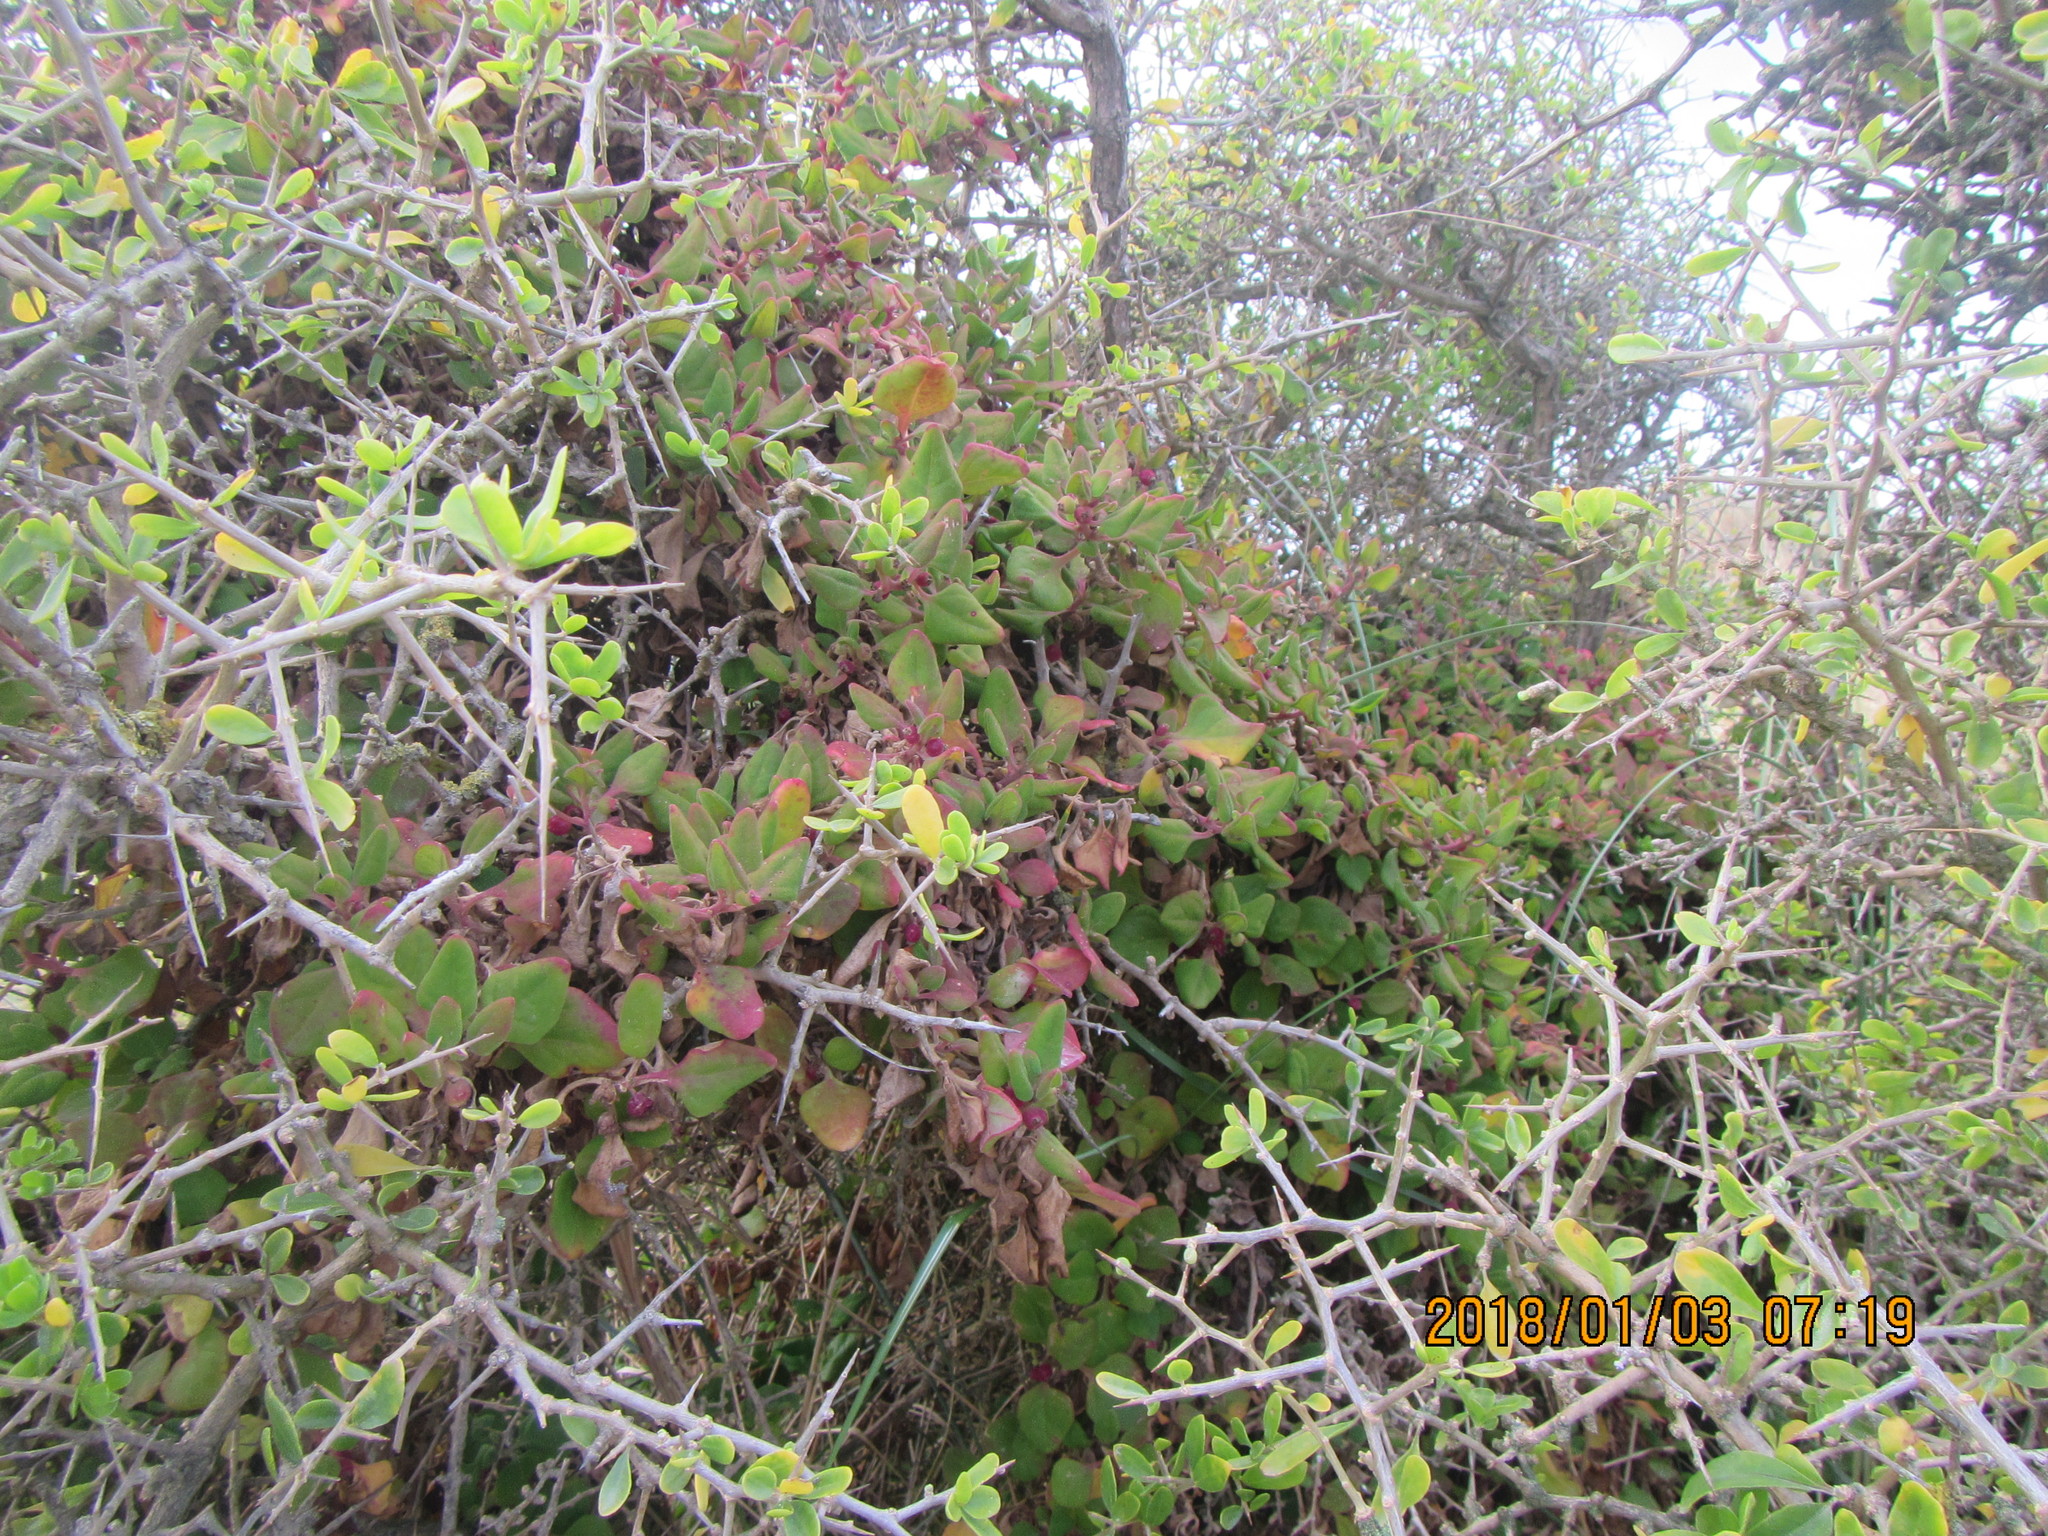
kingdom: Plantae
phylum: Tracheophyta
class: Magnoliopsida
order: Caryophyllales
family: Aizoaceae
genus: Tetragonia
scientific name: Tetragonia implexicoma
